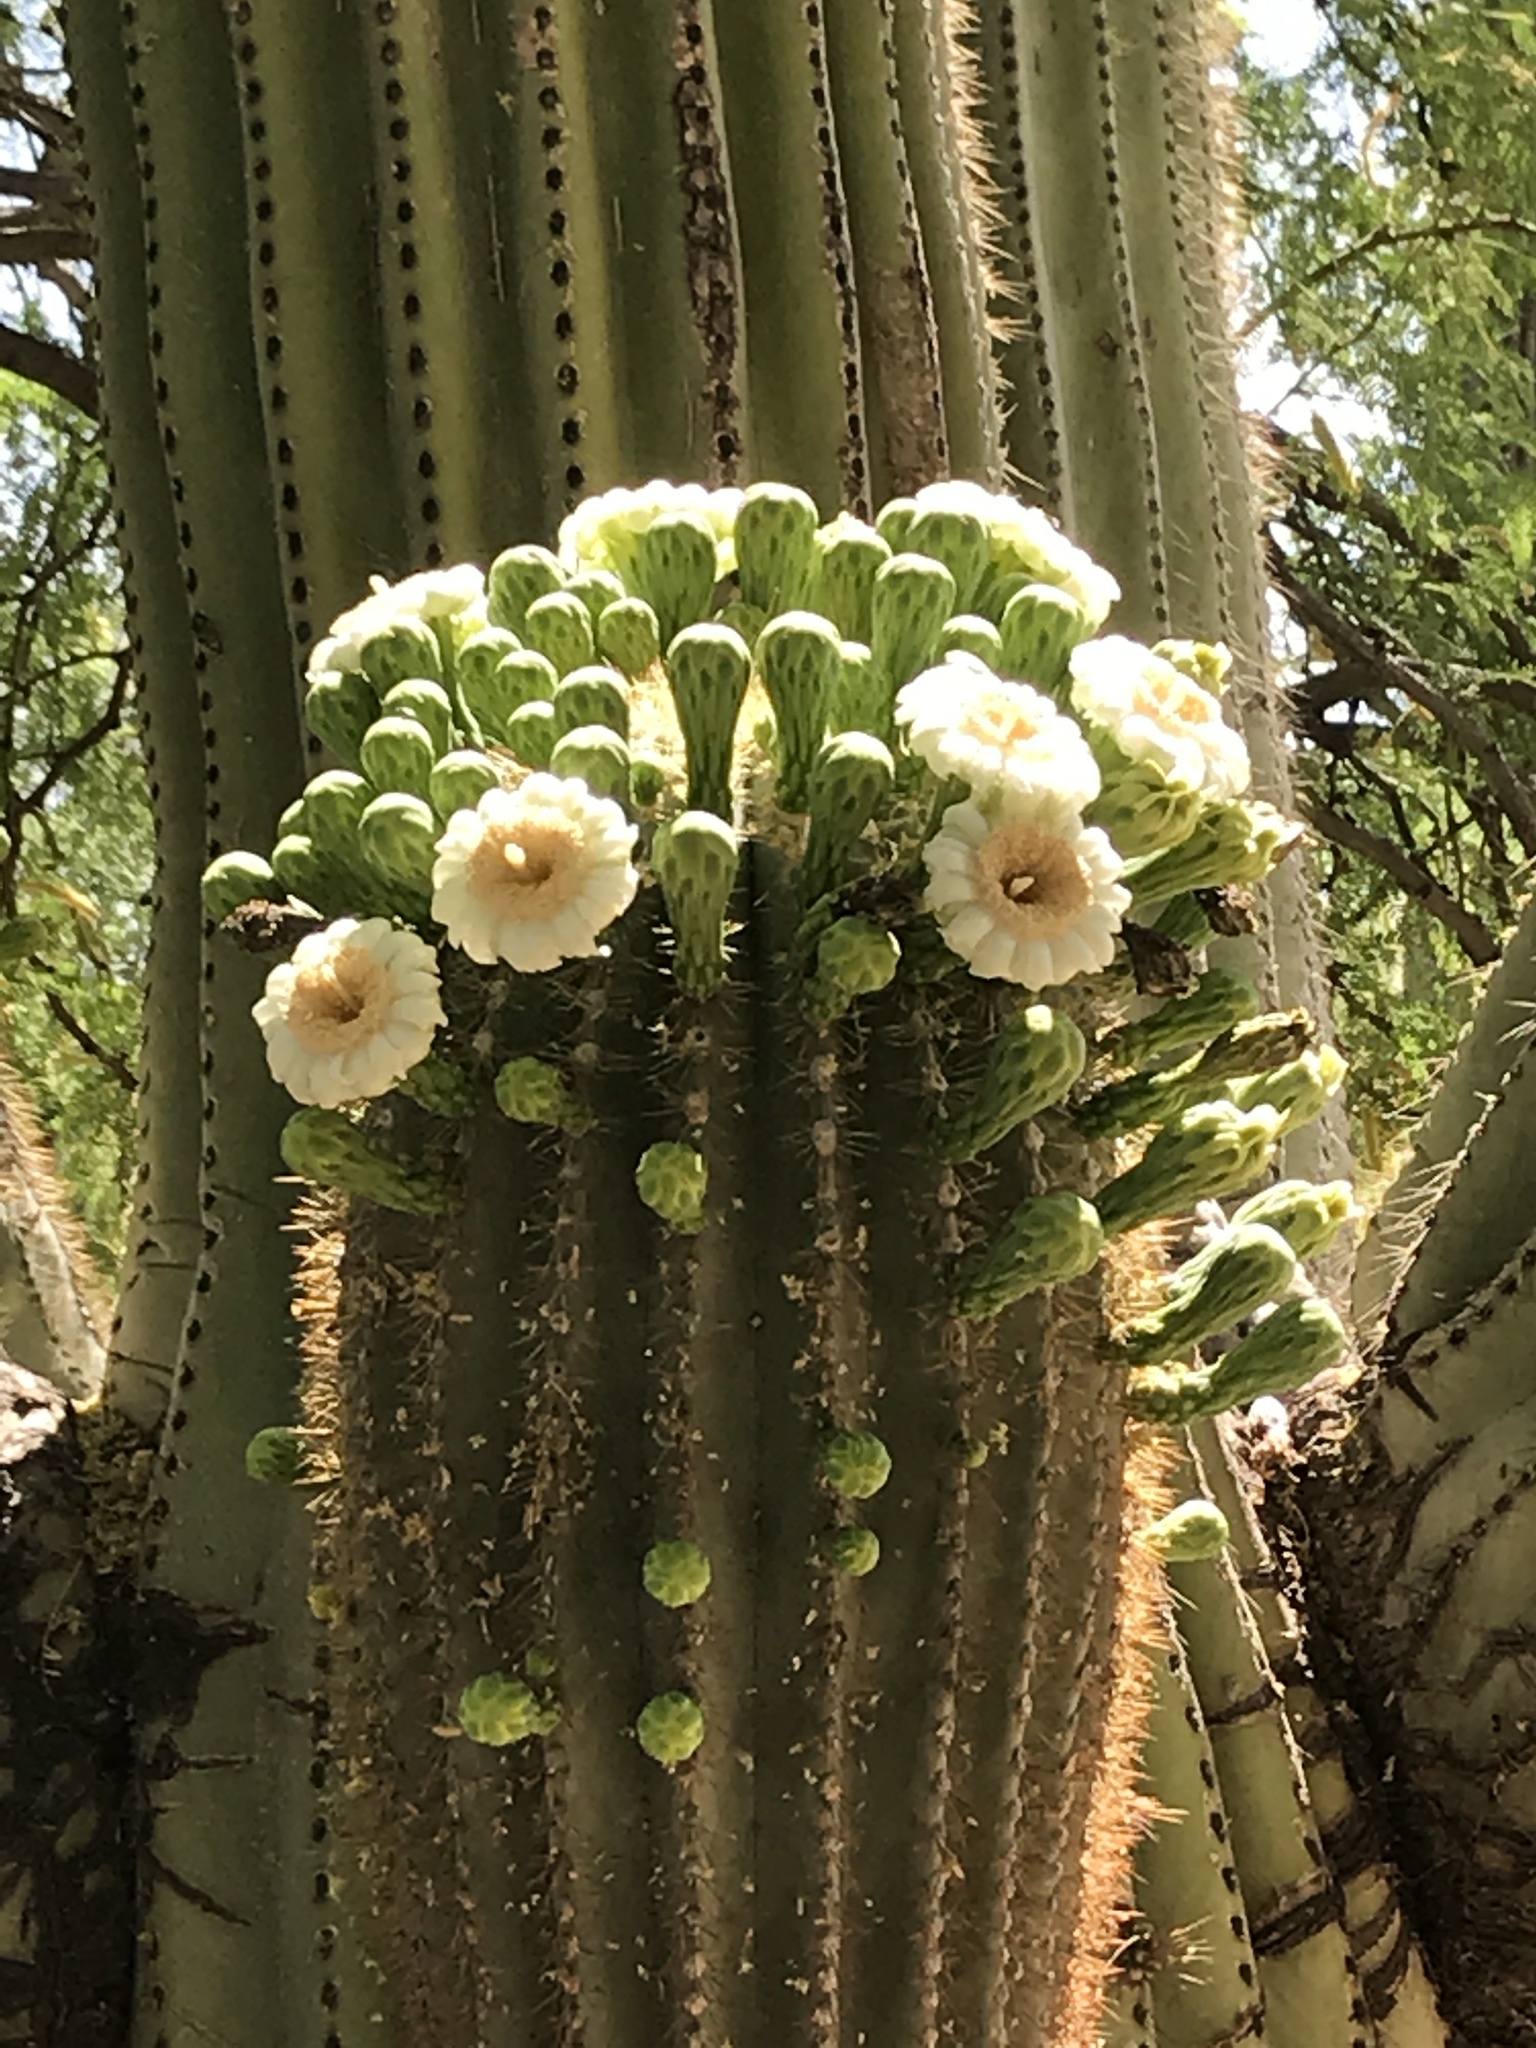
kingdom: Plantae
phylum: Tracheophyta
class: Magnoliopsida
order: Caryophyllales
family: Cactaceae
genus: Carnegiea
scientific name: Carnegiea gigantea
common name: Saguaro
